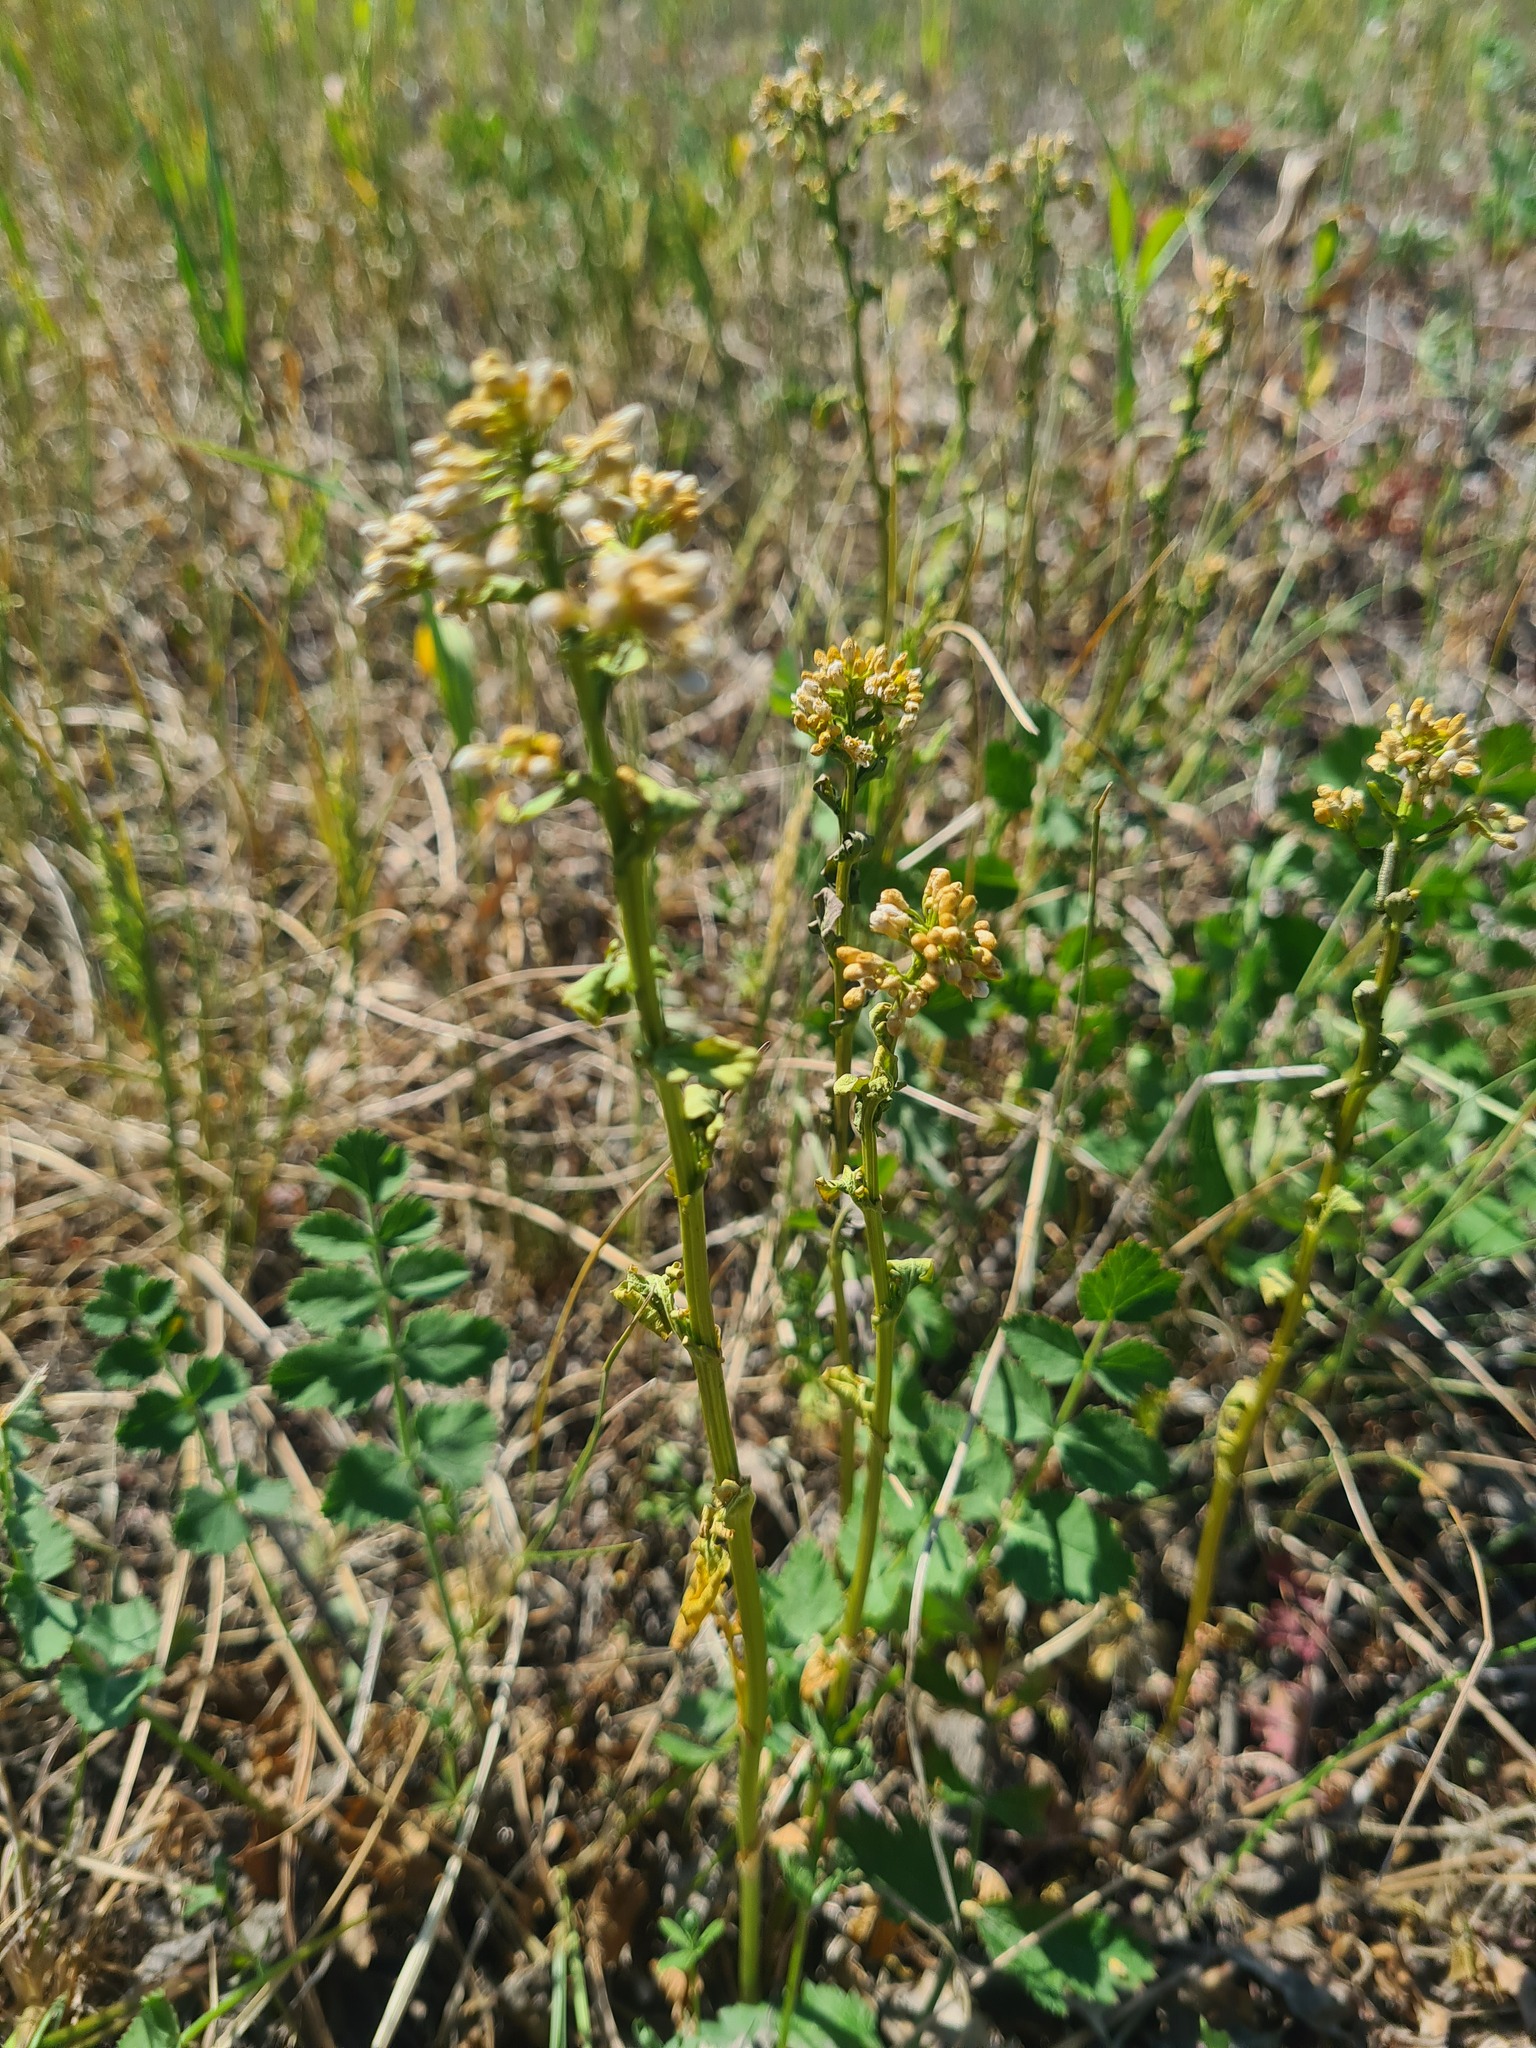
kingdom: Plantae
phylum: Tracheophyta
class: Magnoliopsida
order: Brassicales
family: Brassicaceae
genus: Barbarea
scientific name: Barbarea vulgaris
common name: Cressy-greens
